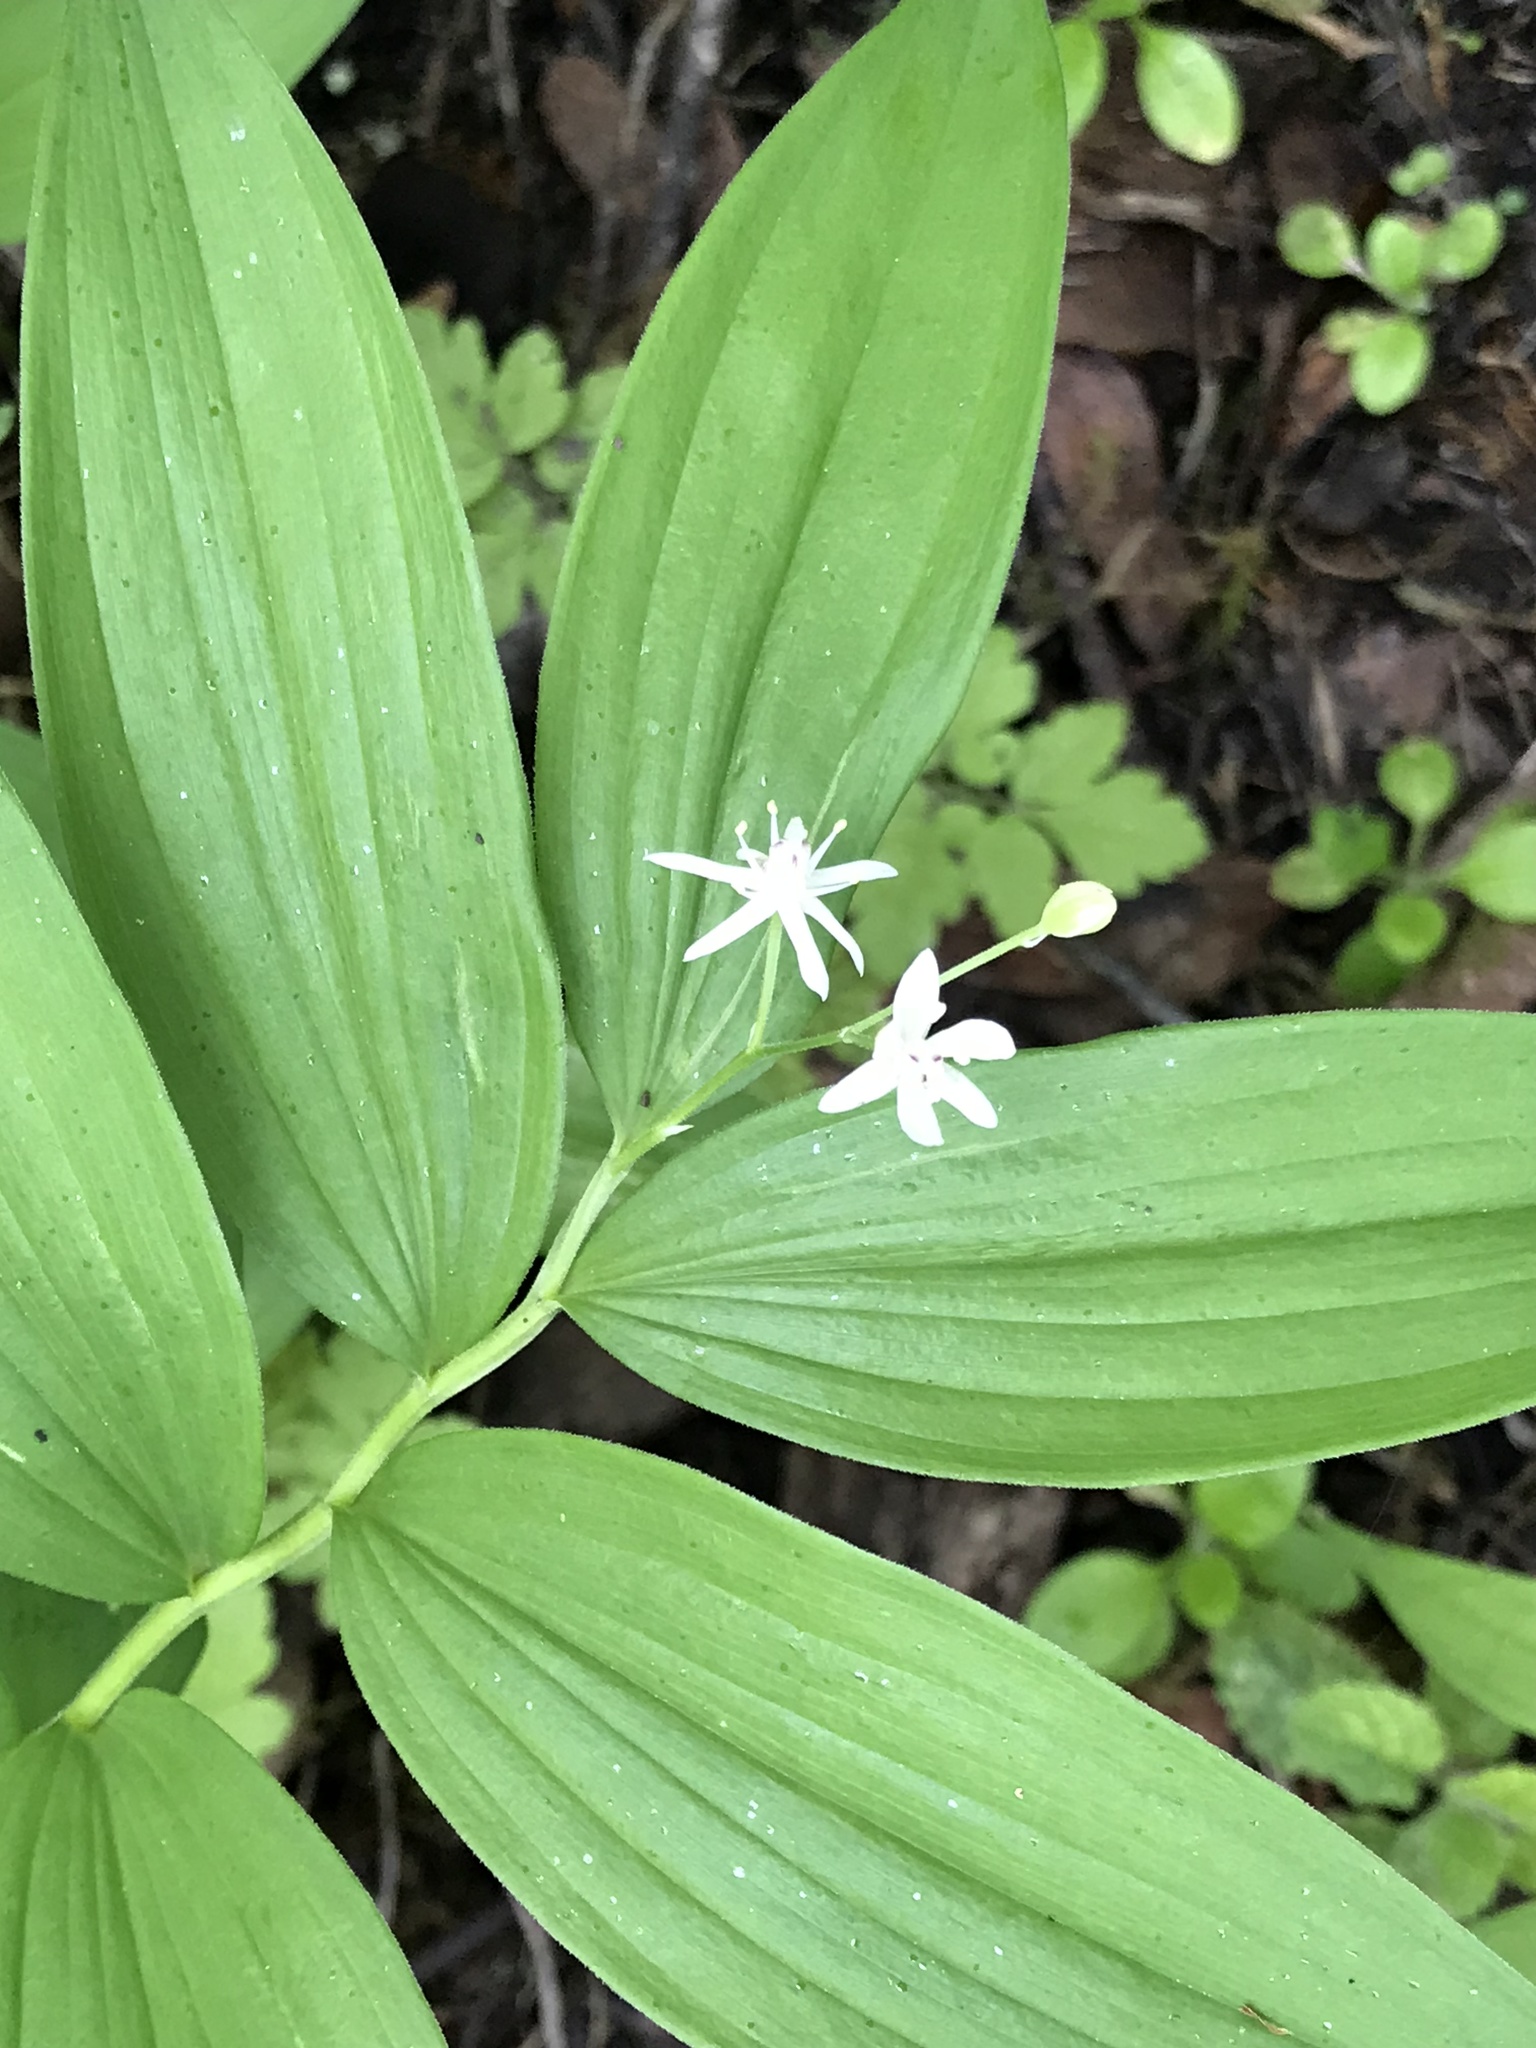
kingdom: Plantae
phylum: Tracheophyta
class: Liliopsida
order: Asparagales
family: Asparagaceae
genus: Maianthemum
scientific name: Maianthemum stellatum
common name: Little false solomon's seal
